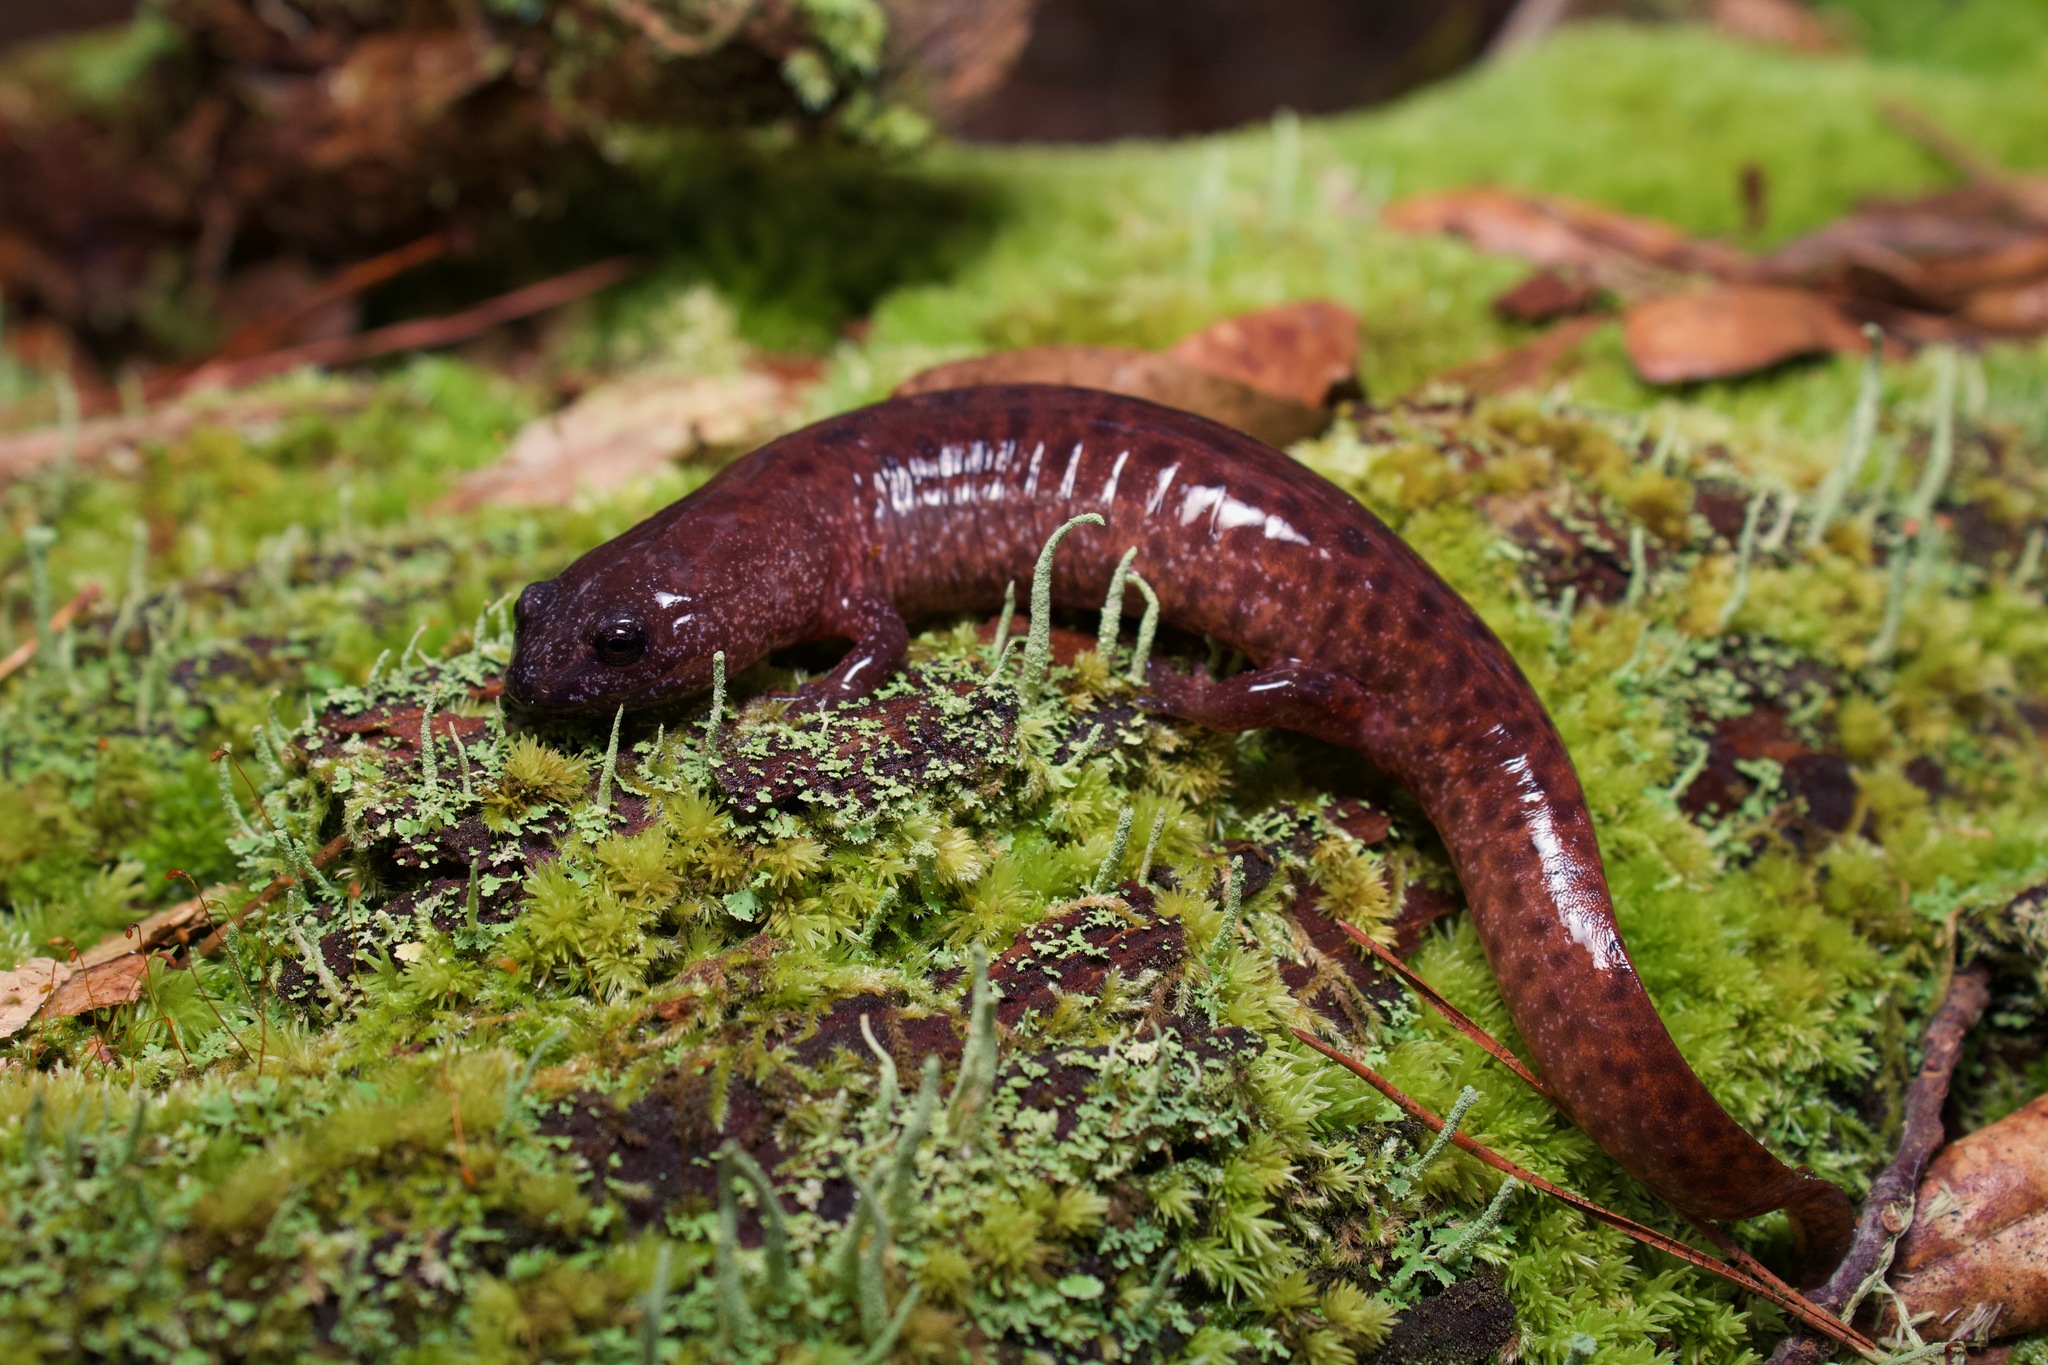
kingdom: Animalia
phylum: Chordata
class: Amphibia
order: Caudata
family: Plethodontidae
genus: Pseudotriton
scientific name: Pseudotriton ruber
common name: Red salamander
